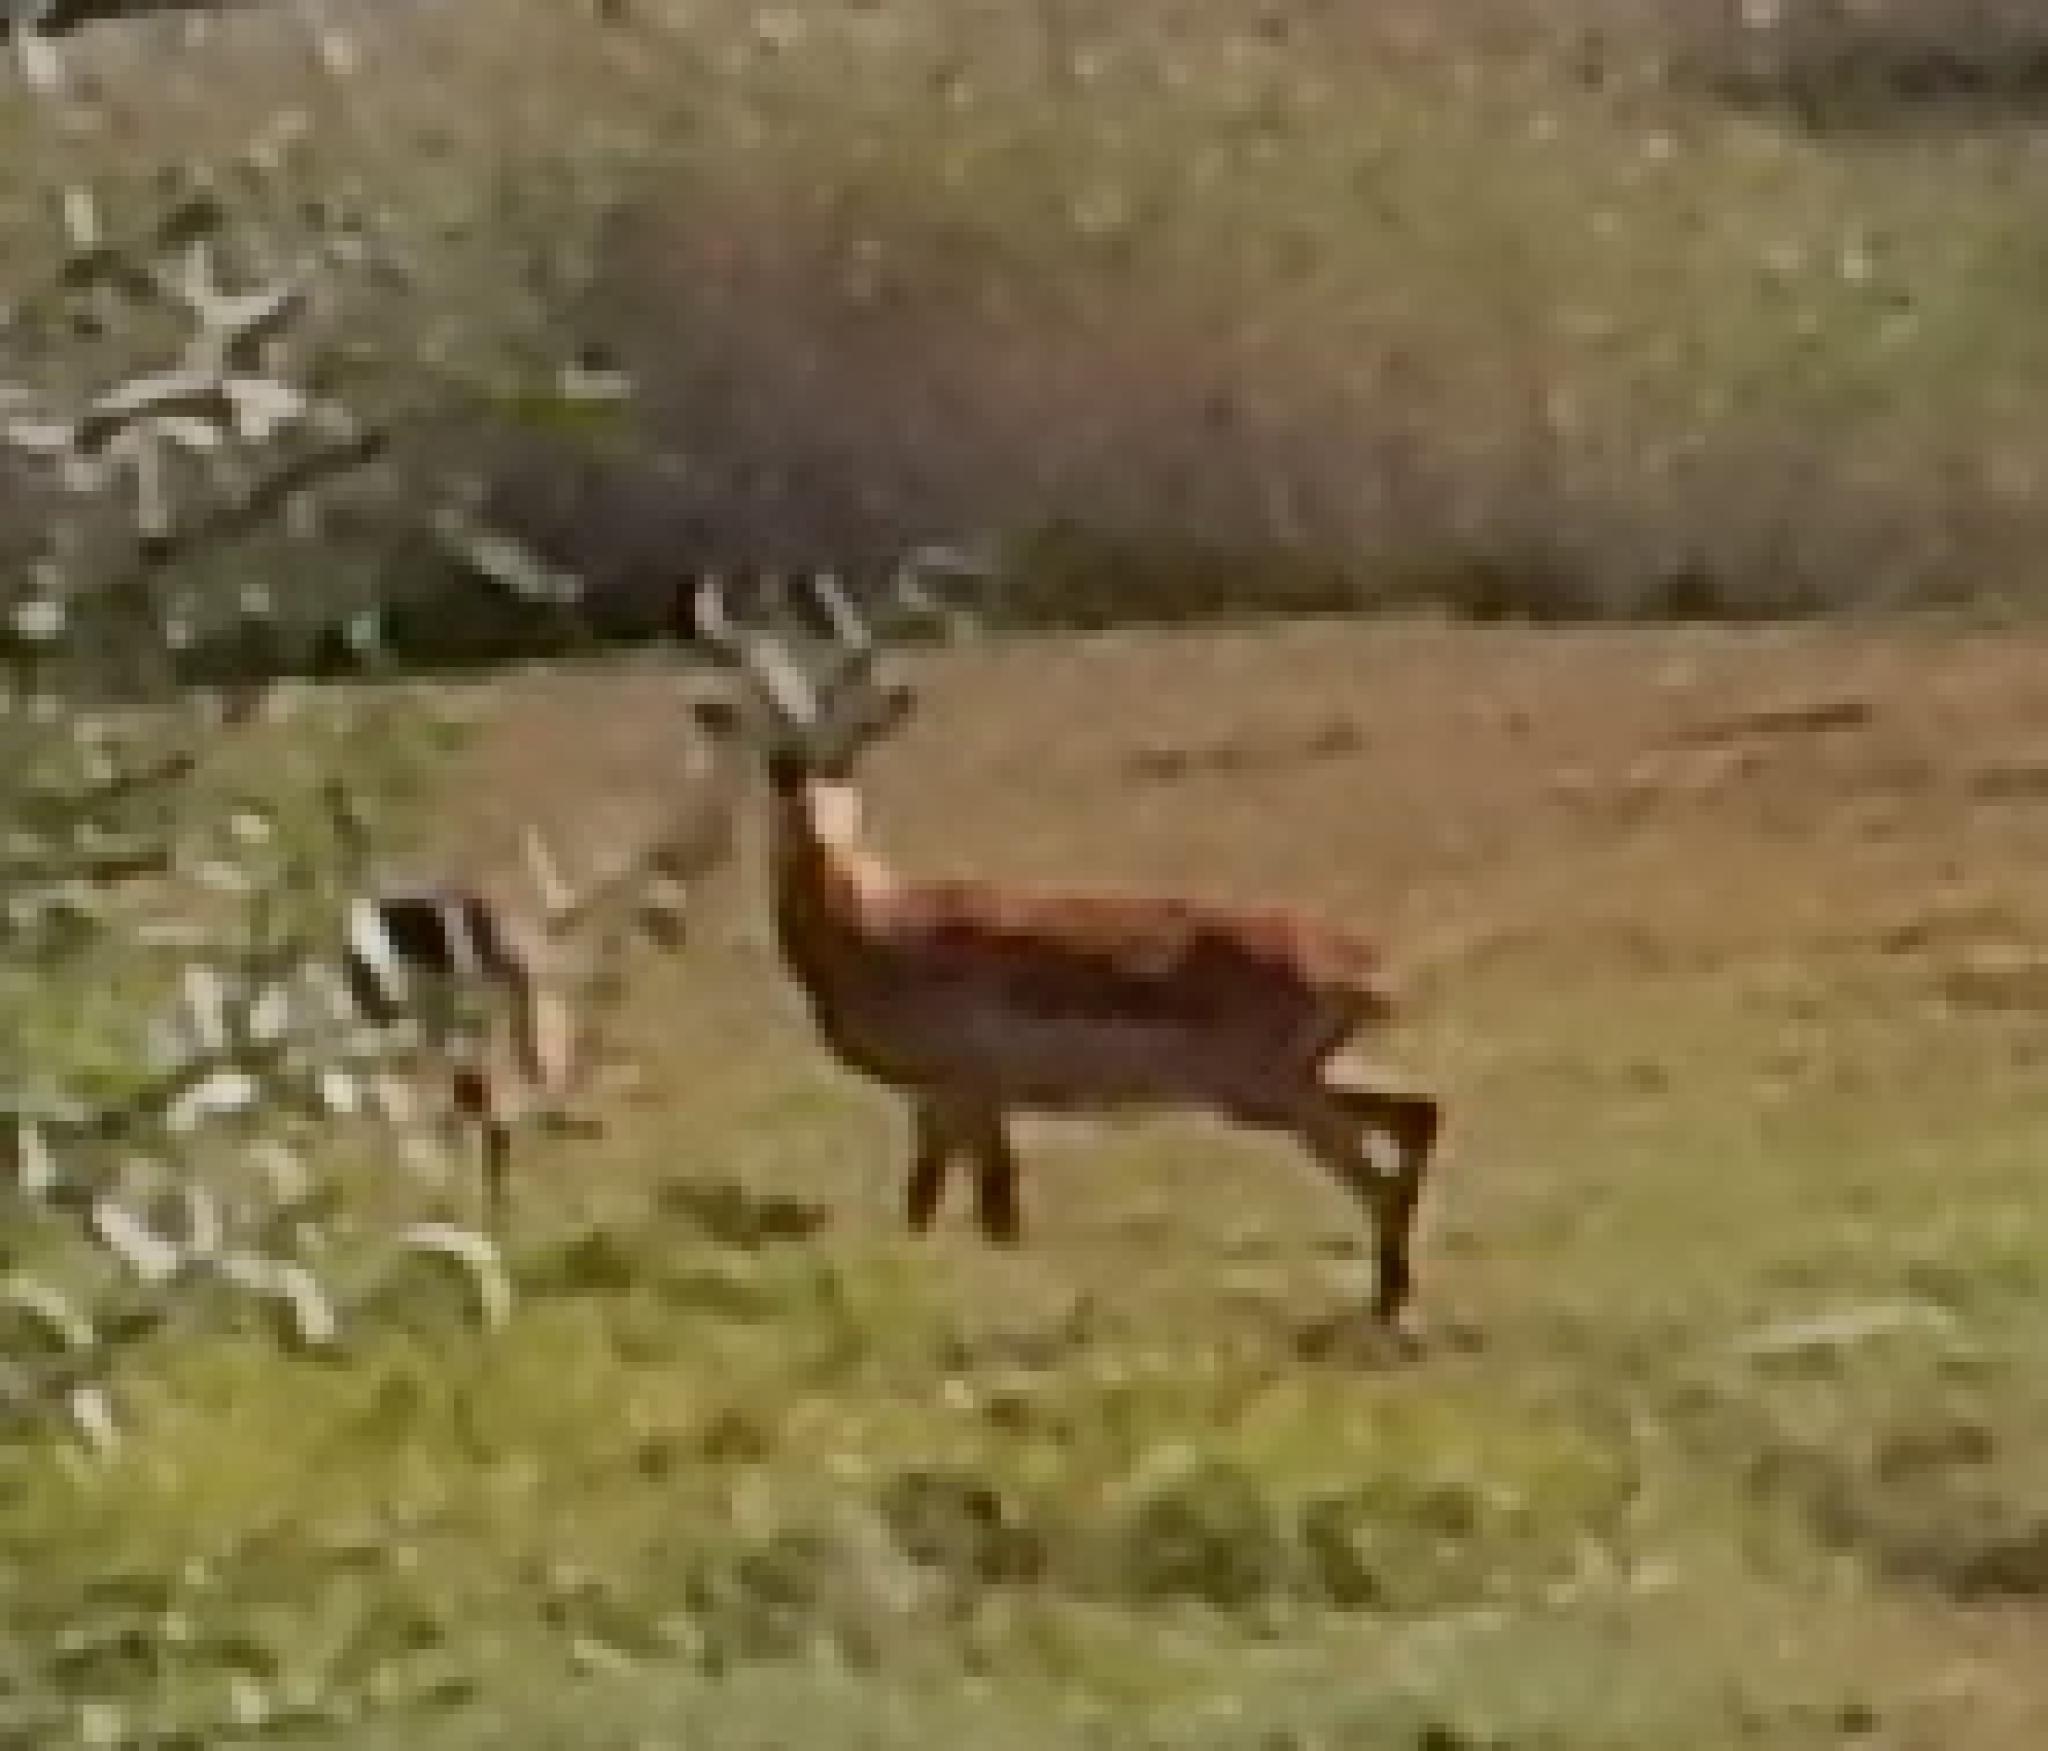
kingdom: Animalia
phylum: Chordata
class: Mammalia
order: Artiodactyla
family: Bovidae
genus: Aepyceros
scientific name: Aepyceros melampus
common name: Impala
